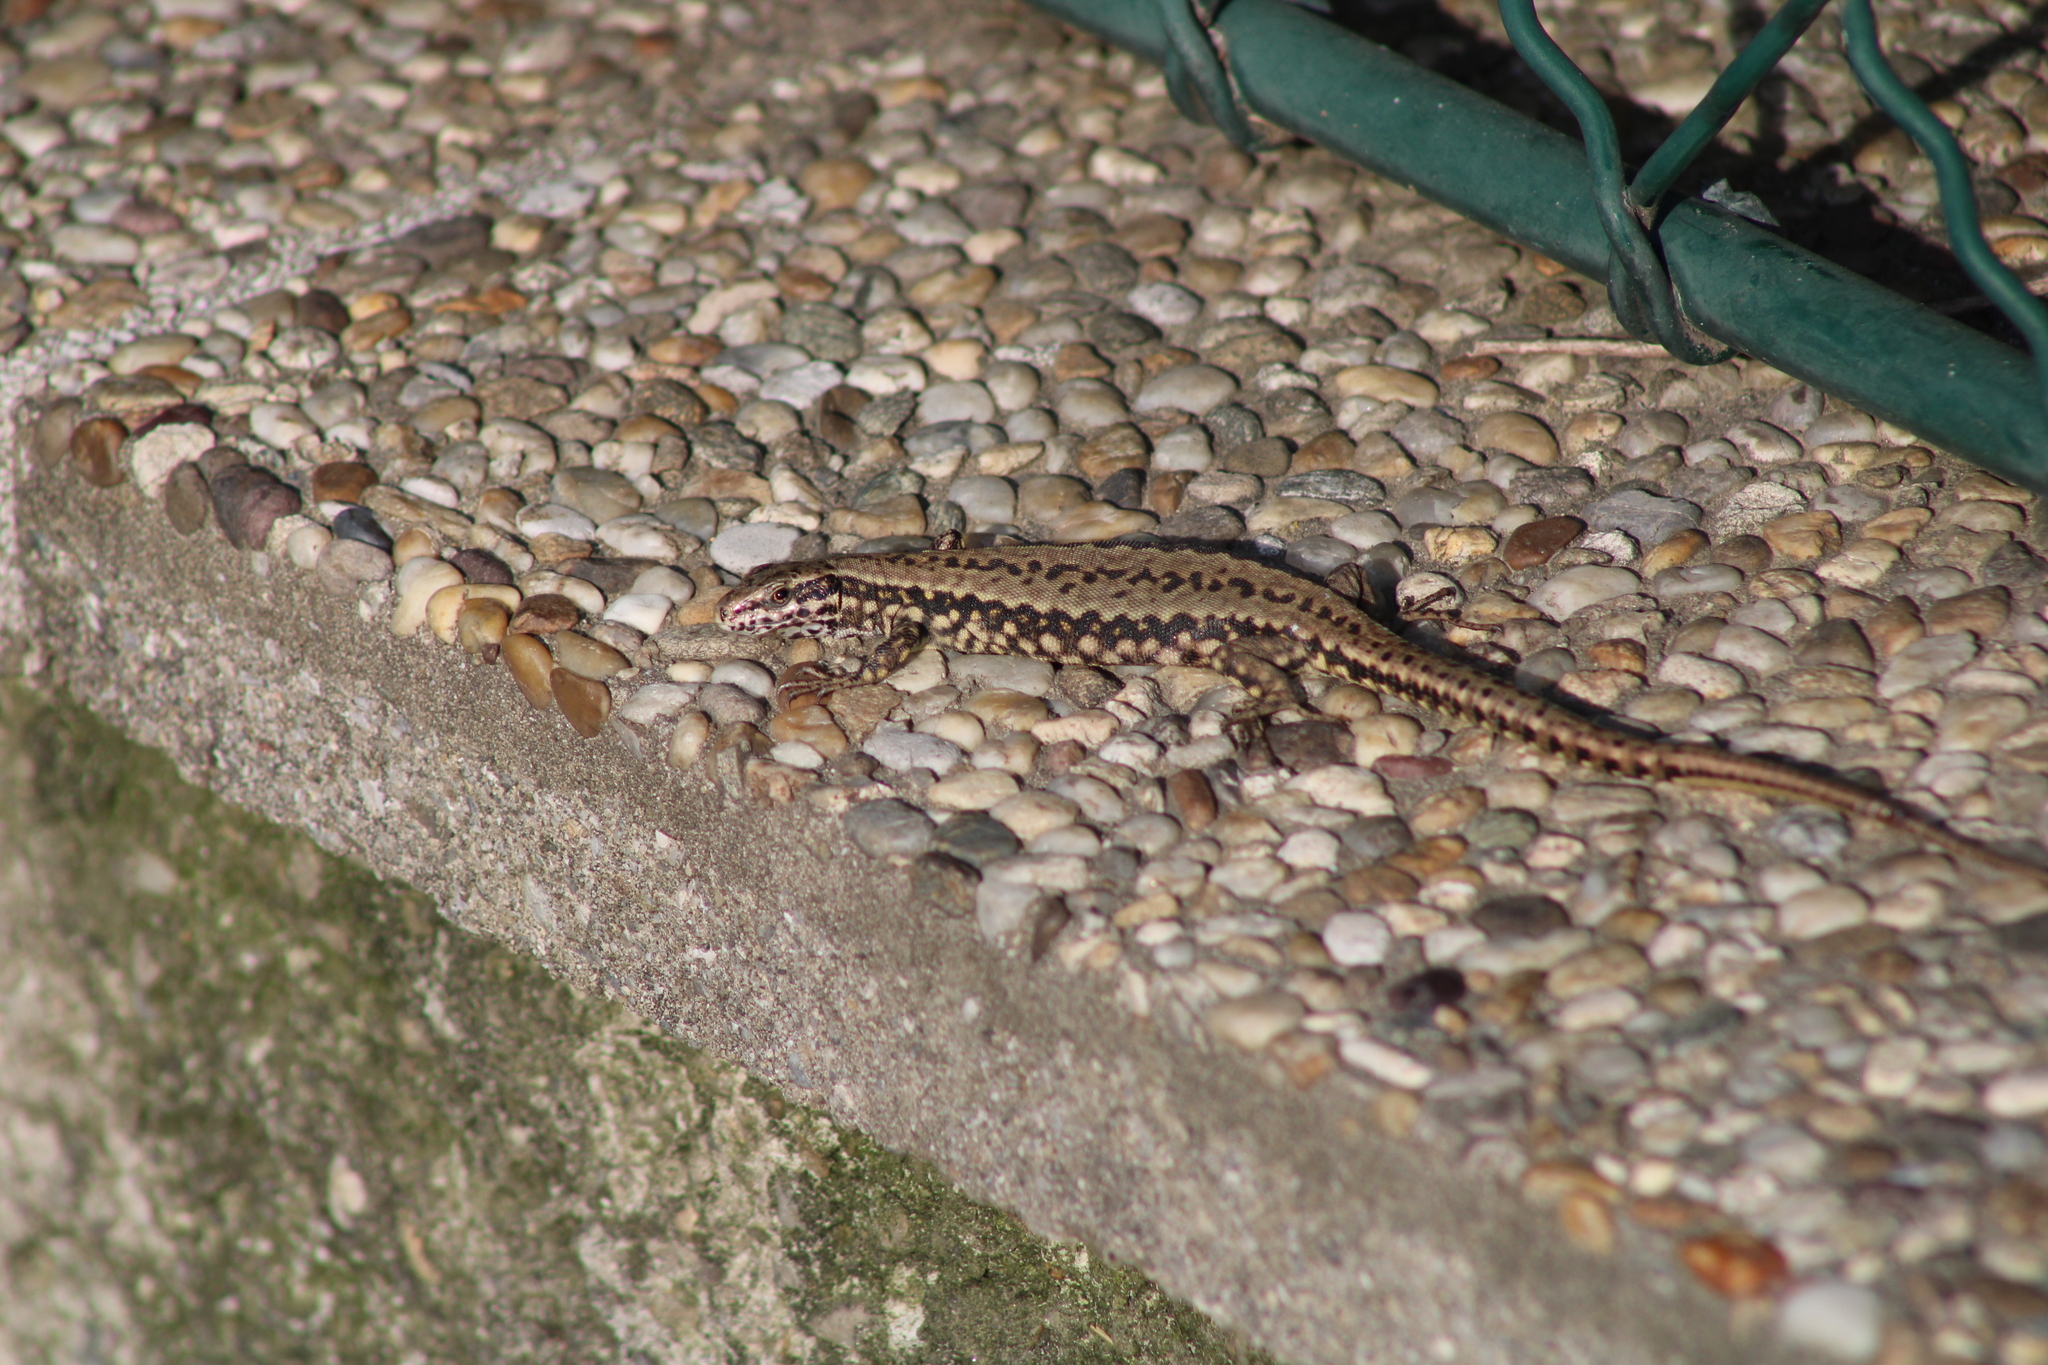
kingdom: Animalia
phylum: Chordata
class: Squamata
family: Lacertidae
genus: Podarcis
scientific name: Podarcis muralis
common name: Common wall lizard
